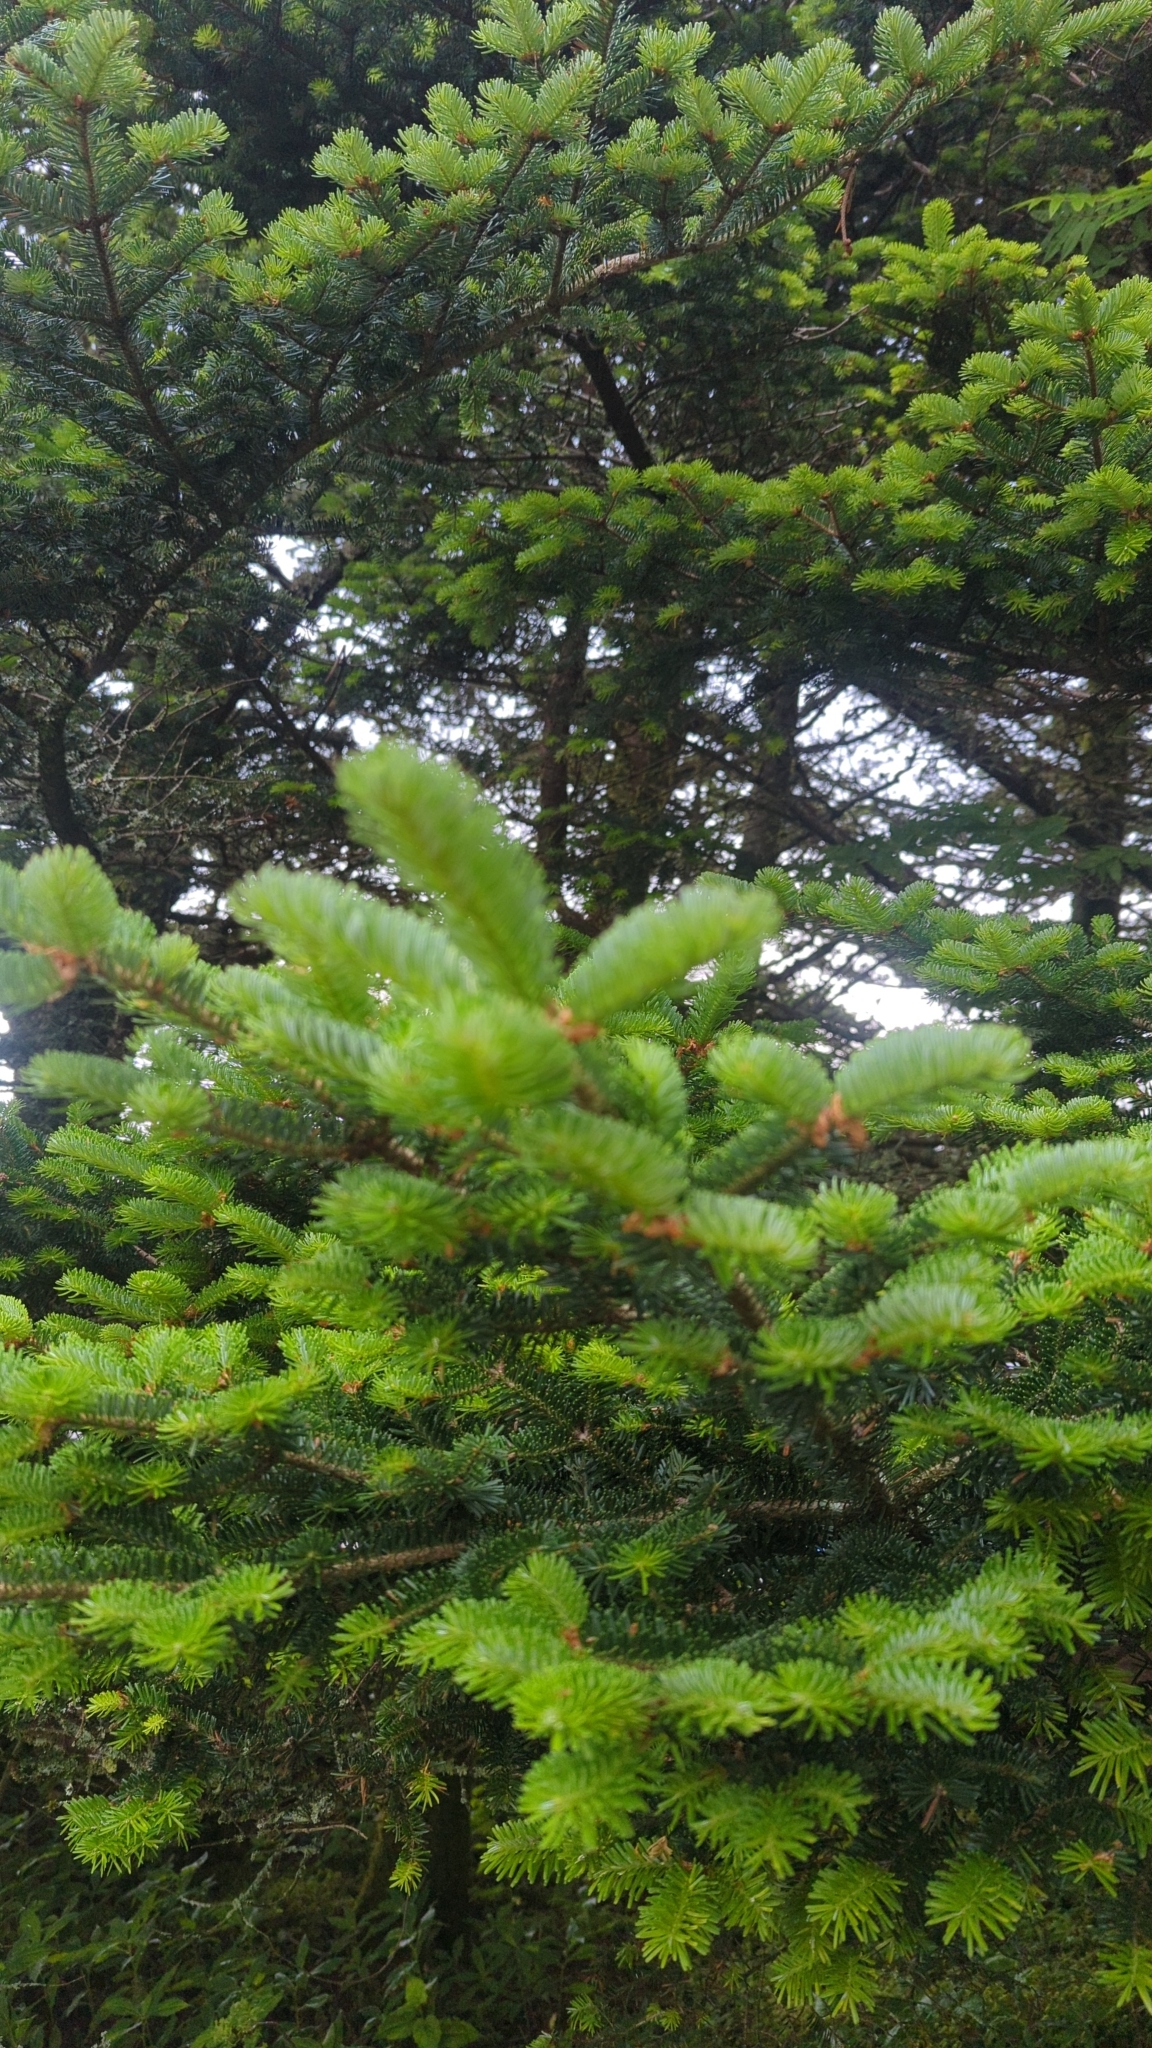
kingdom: Plantae
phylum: Tracheophyta
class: Pinopsida
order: Pinales
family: Pinaceae
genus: Abies
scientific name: Abies fraseri
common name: Fraser fir
